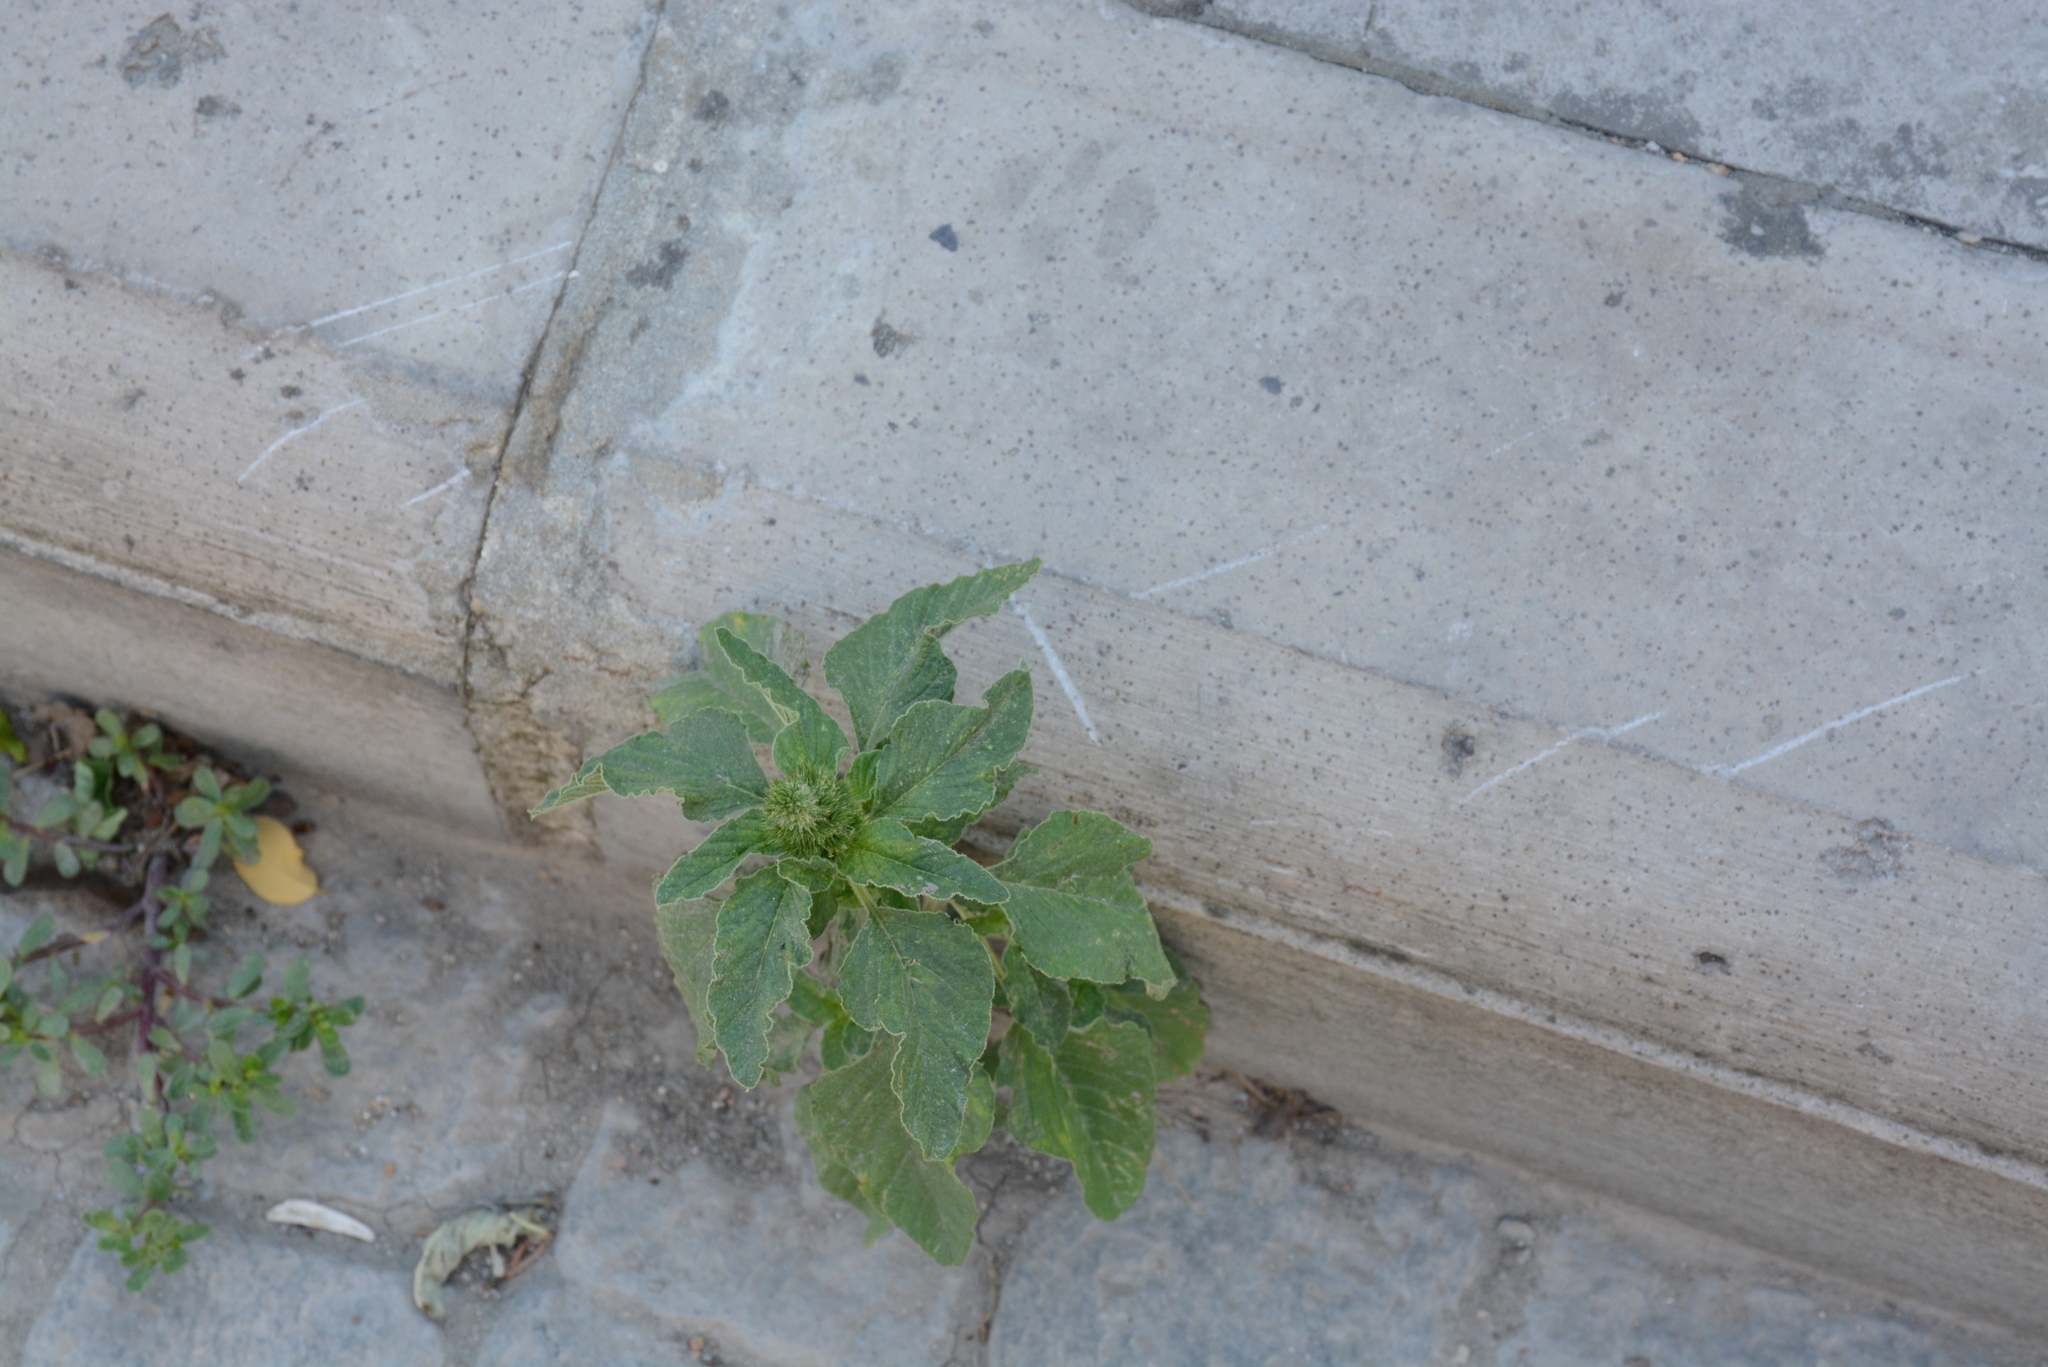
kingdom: Plantae
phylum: Tracheophyta
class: Magnoliopsida
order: Caryophyllales
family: Amaranthaceae
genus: Amaranthus
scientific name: Amaranthus retroflexus
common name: Redroot amaranth
